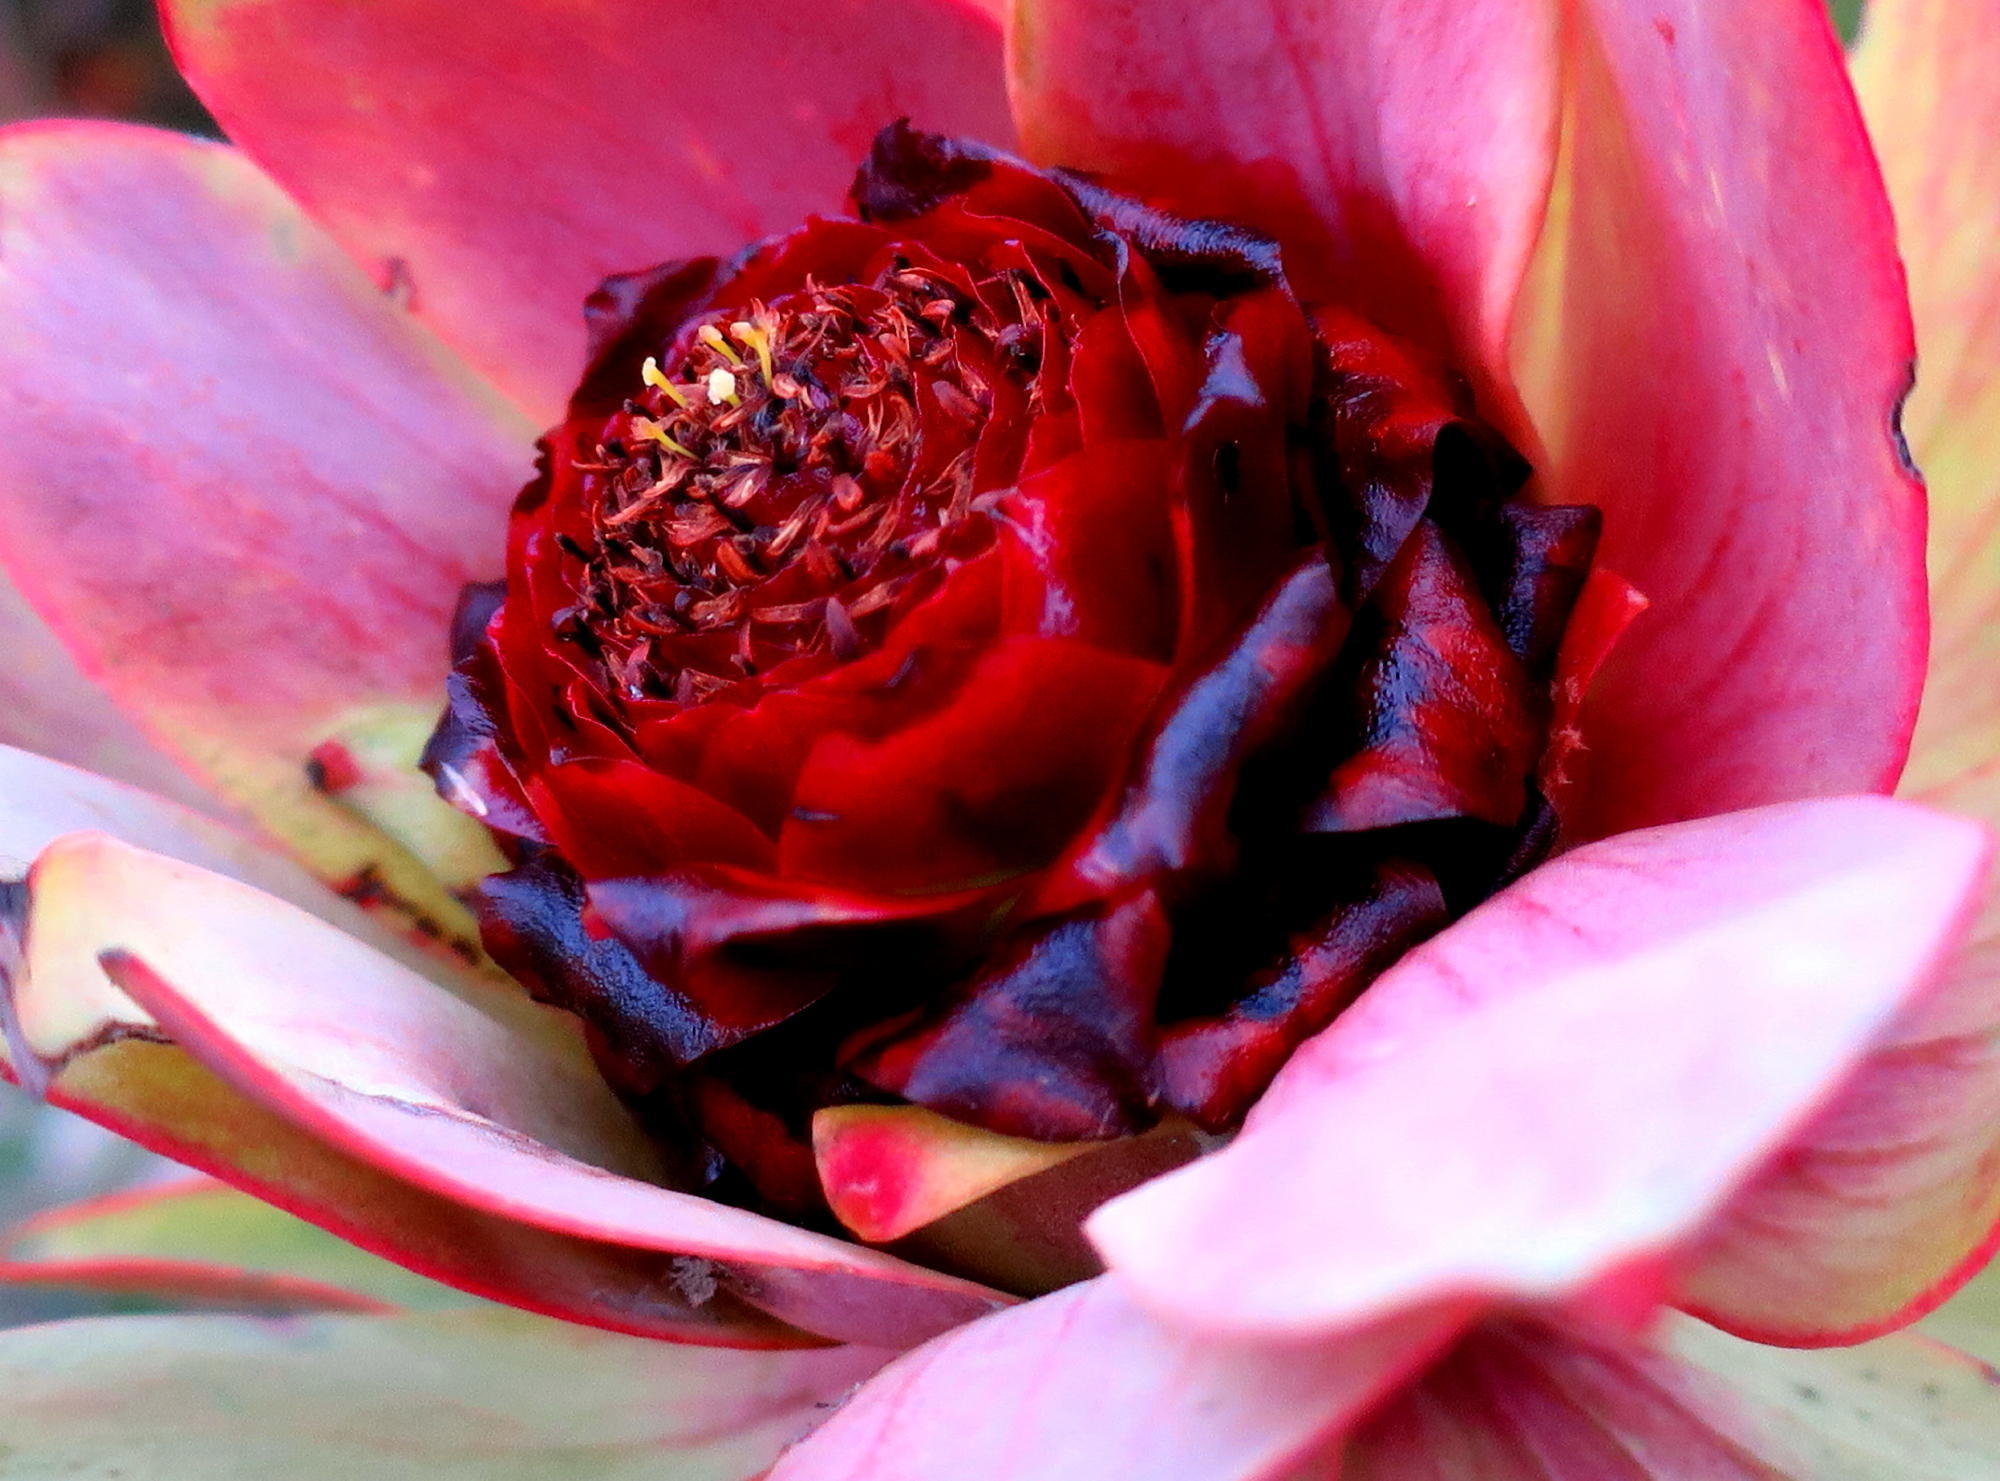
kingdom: Plantae
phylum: Tracheophyta
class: Magnoliopsida
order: Proteales
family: Proteaceae
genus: Leucadendron
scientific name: Leucadendron tinctum
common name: Spicy conebush
